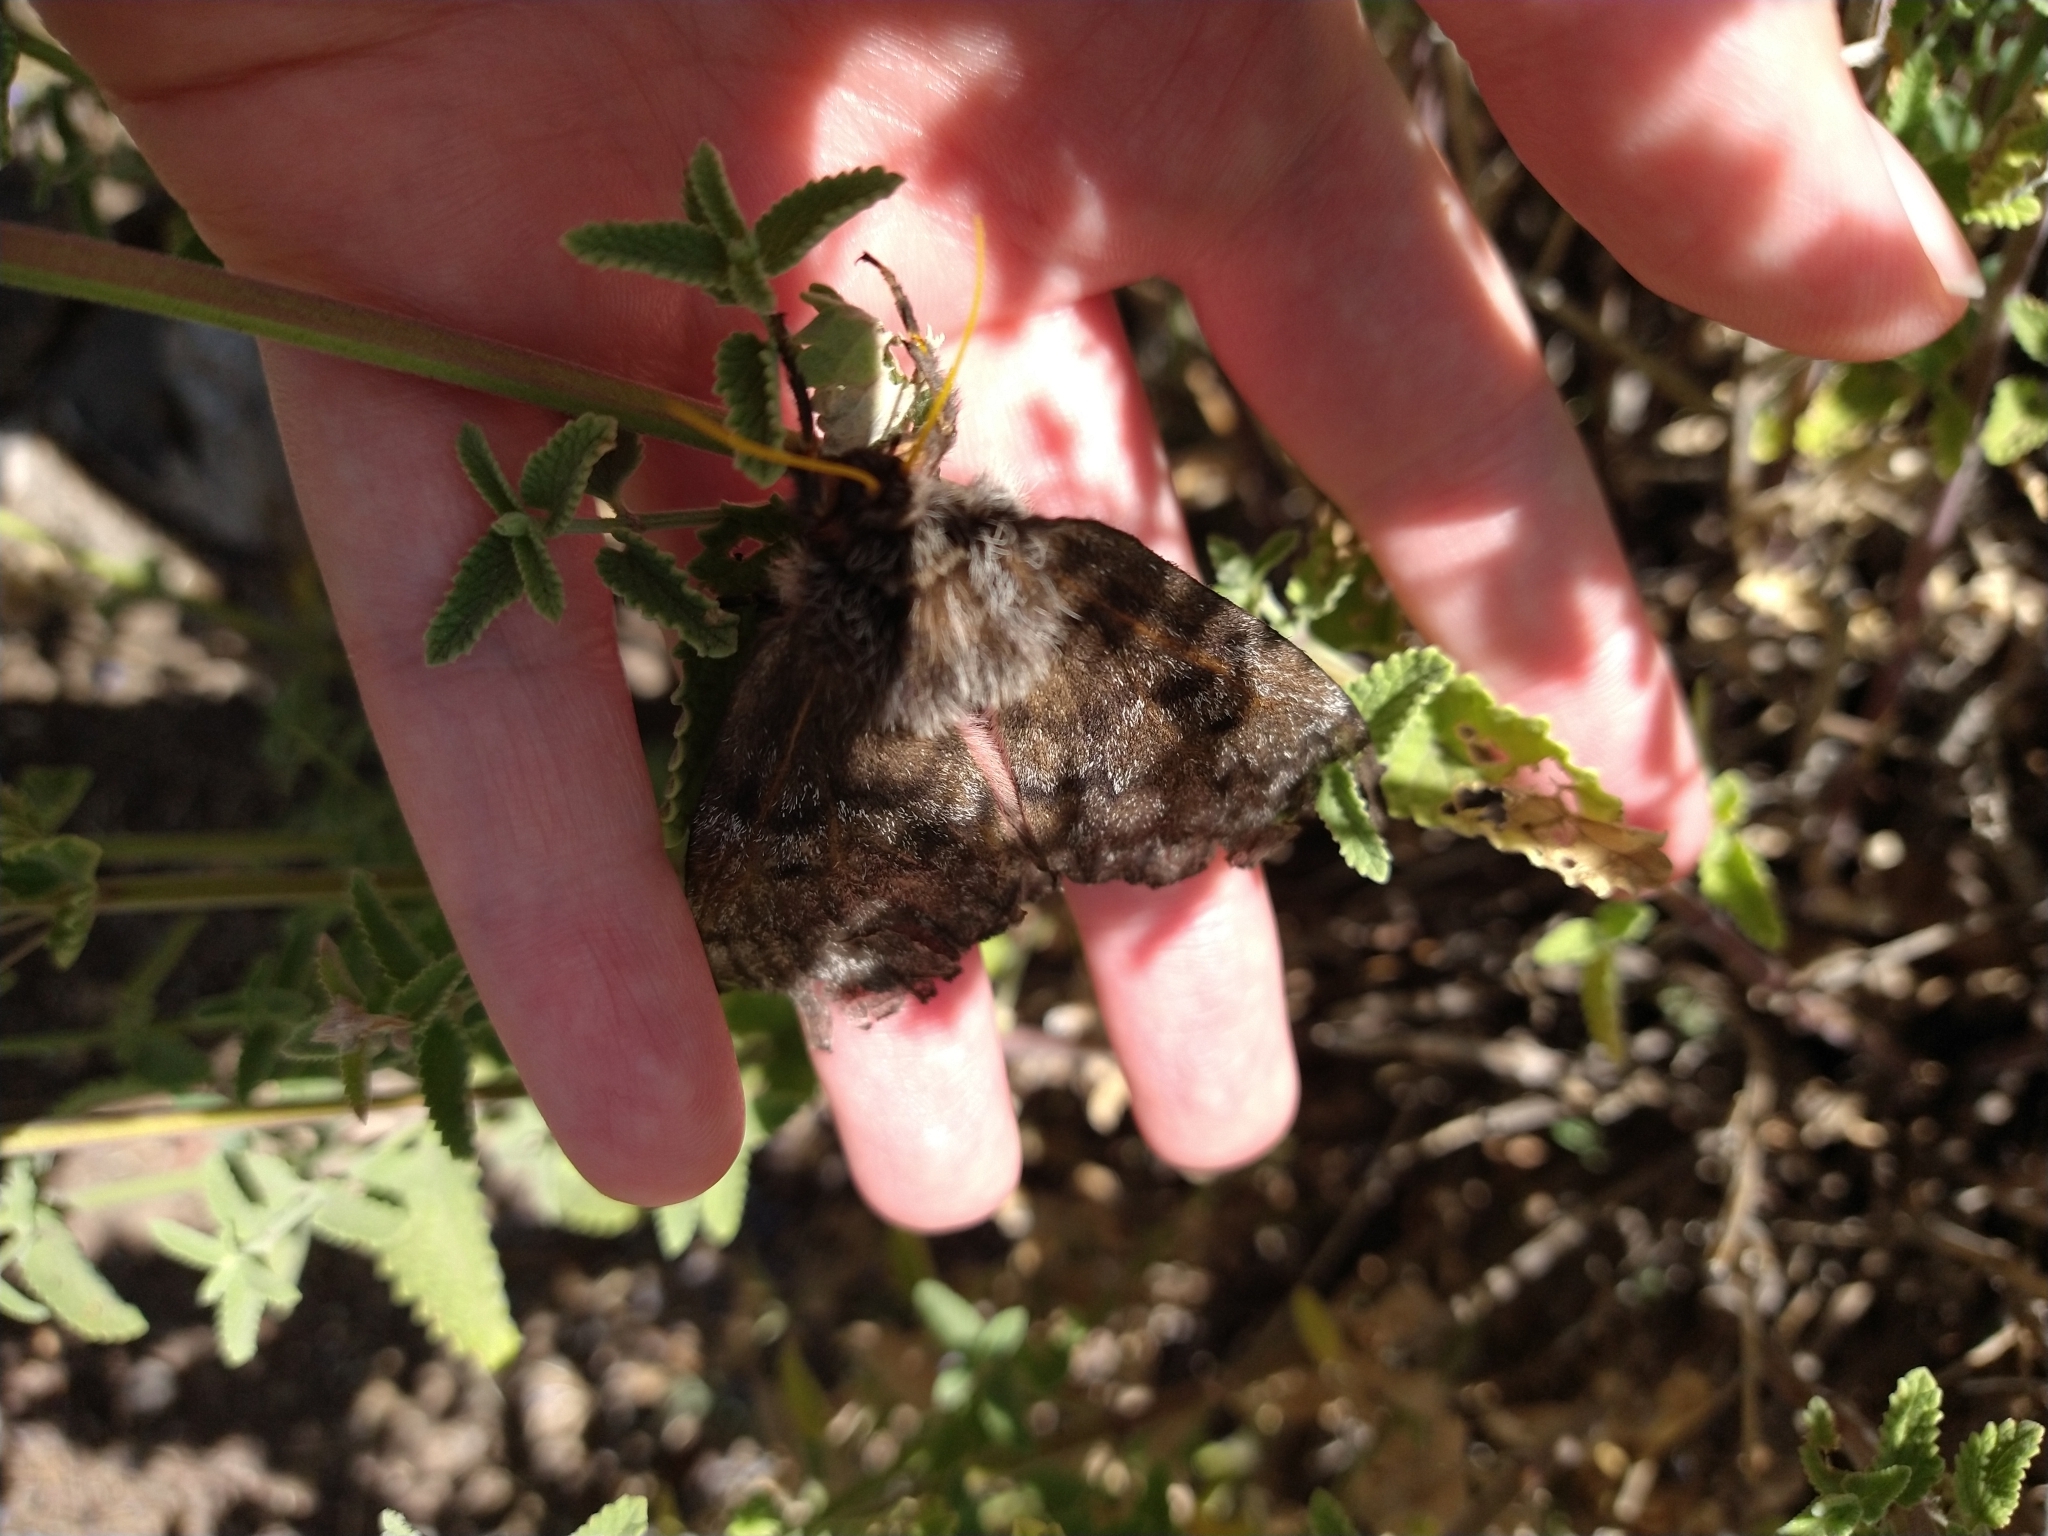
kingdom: Animalia
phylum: Arthropoda
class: Insecta
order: Lepidoptera
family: Saturniidae
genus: Coloradia
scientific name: Coloradia pandora
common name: Pandora pinemoth
